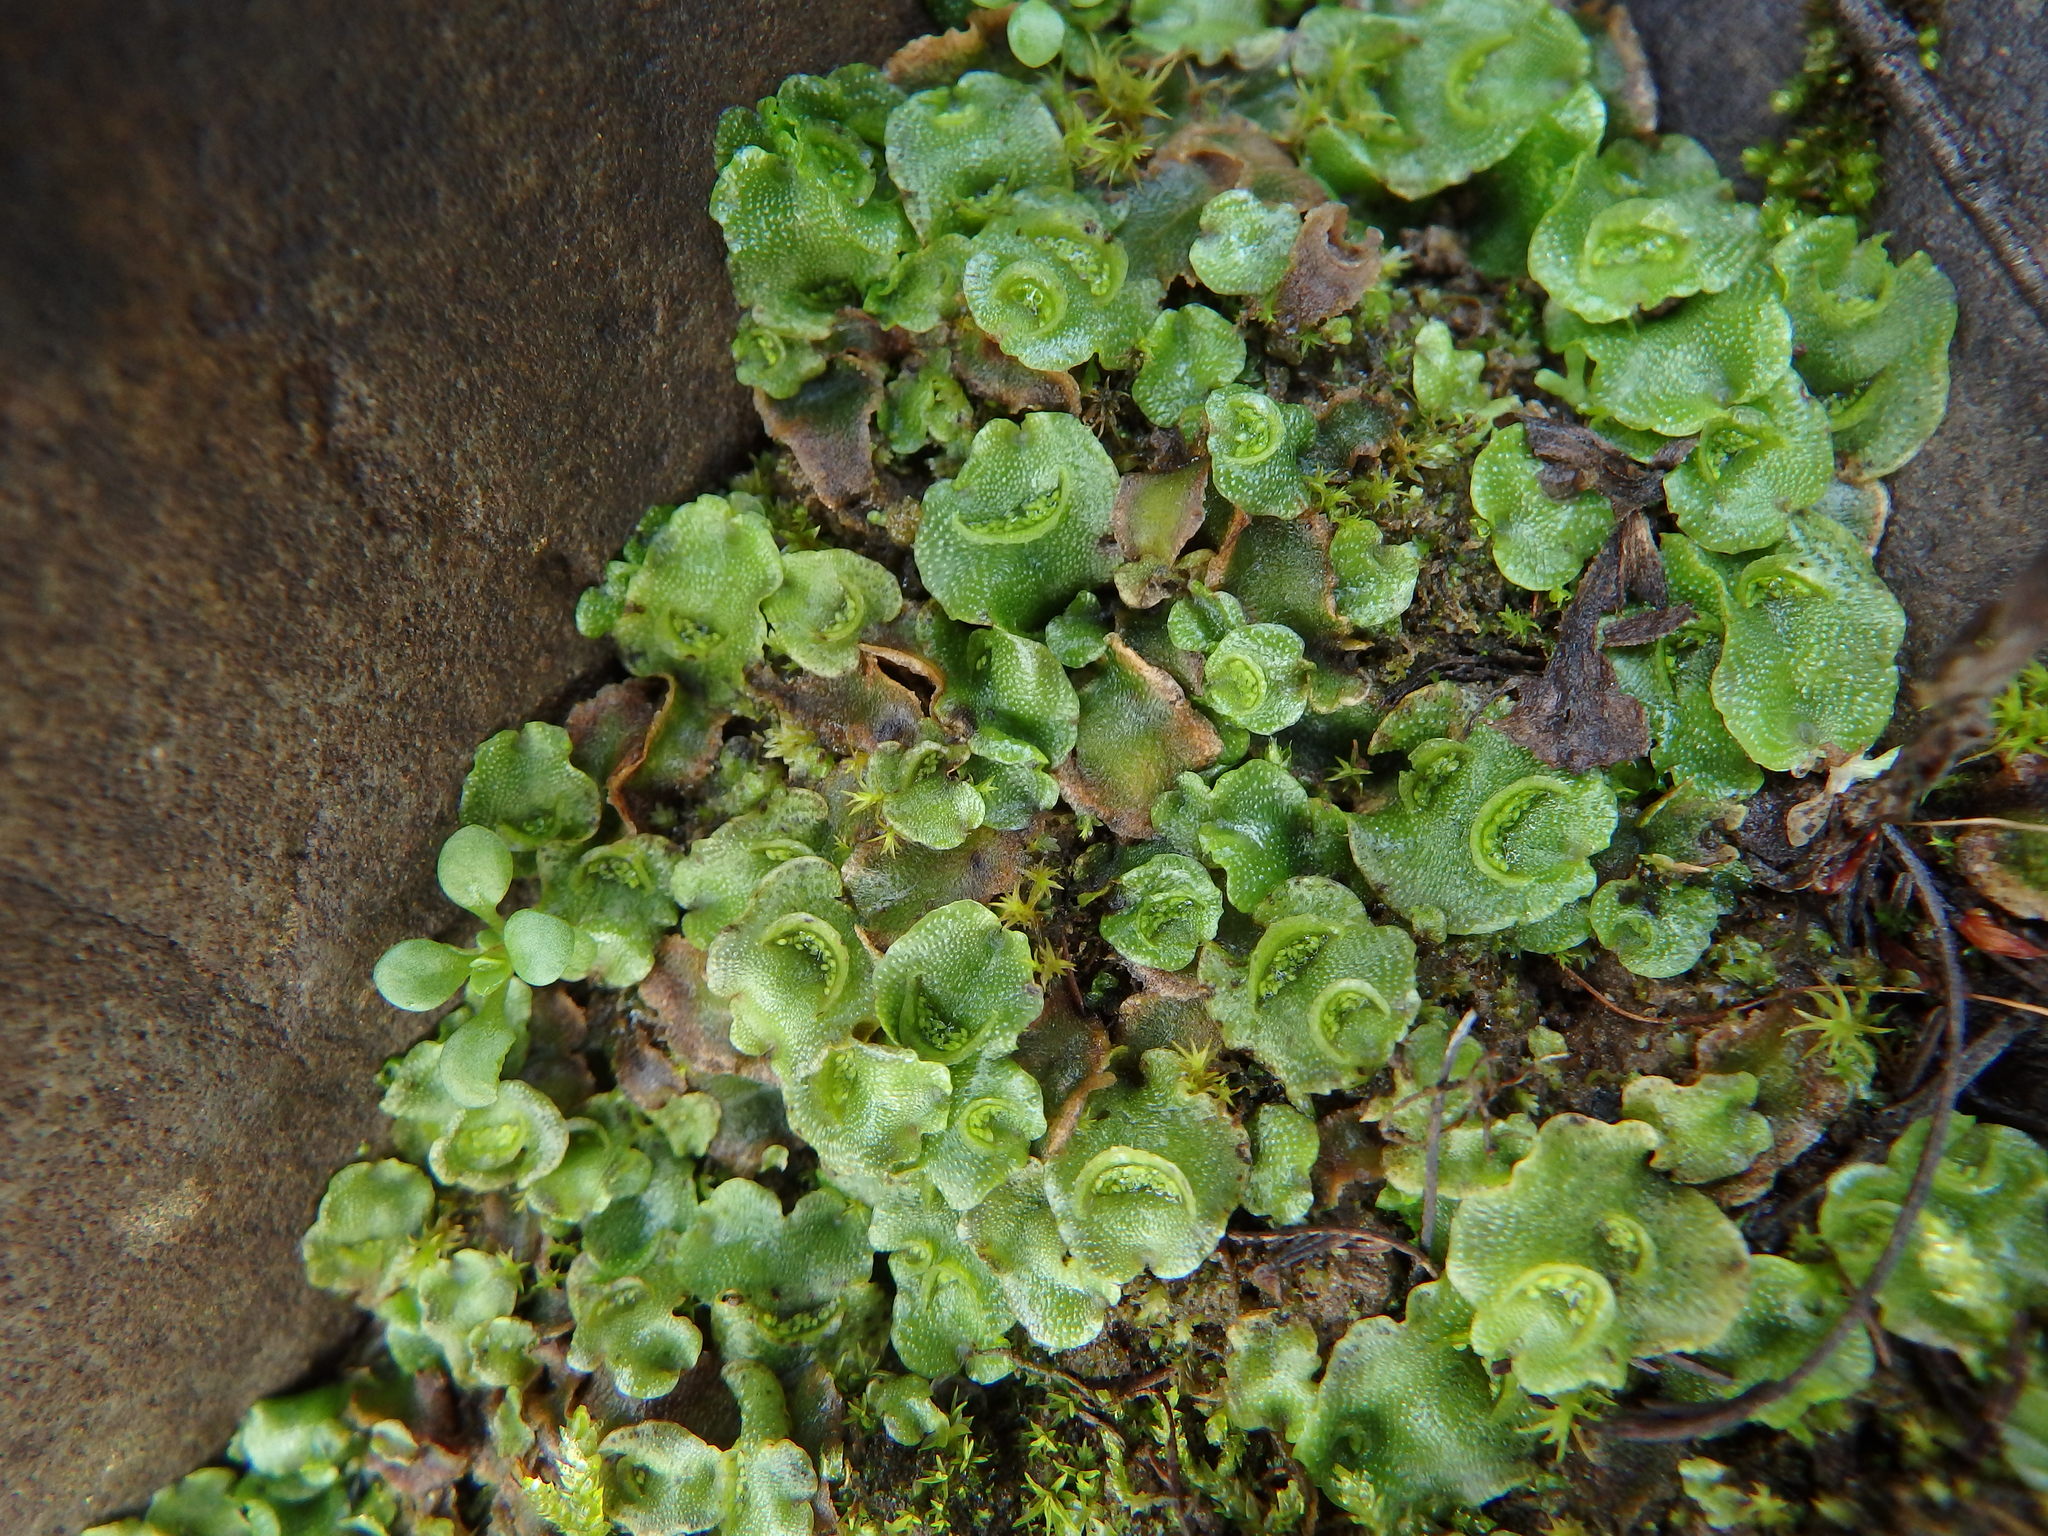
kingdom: Plantae
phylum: Marchantiophyta
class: Marchantiopsida
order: Lunulariales
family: Lunulariaceae
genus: Lunularia
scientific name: Lunularia cruciata
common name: Crescent-cup liverwort
